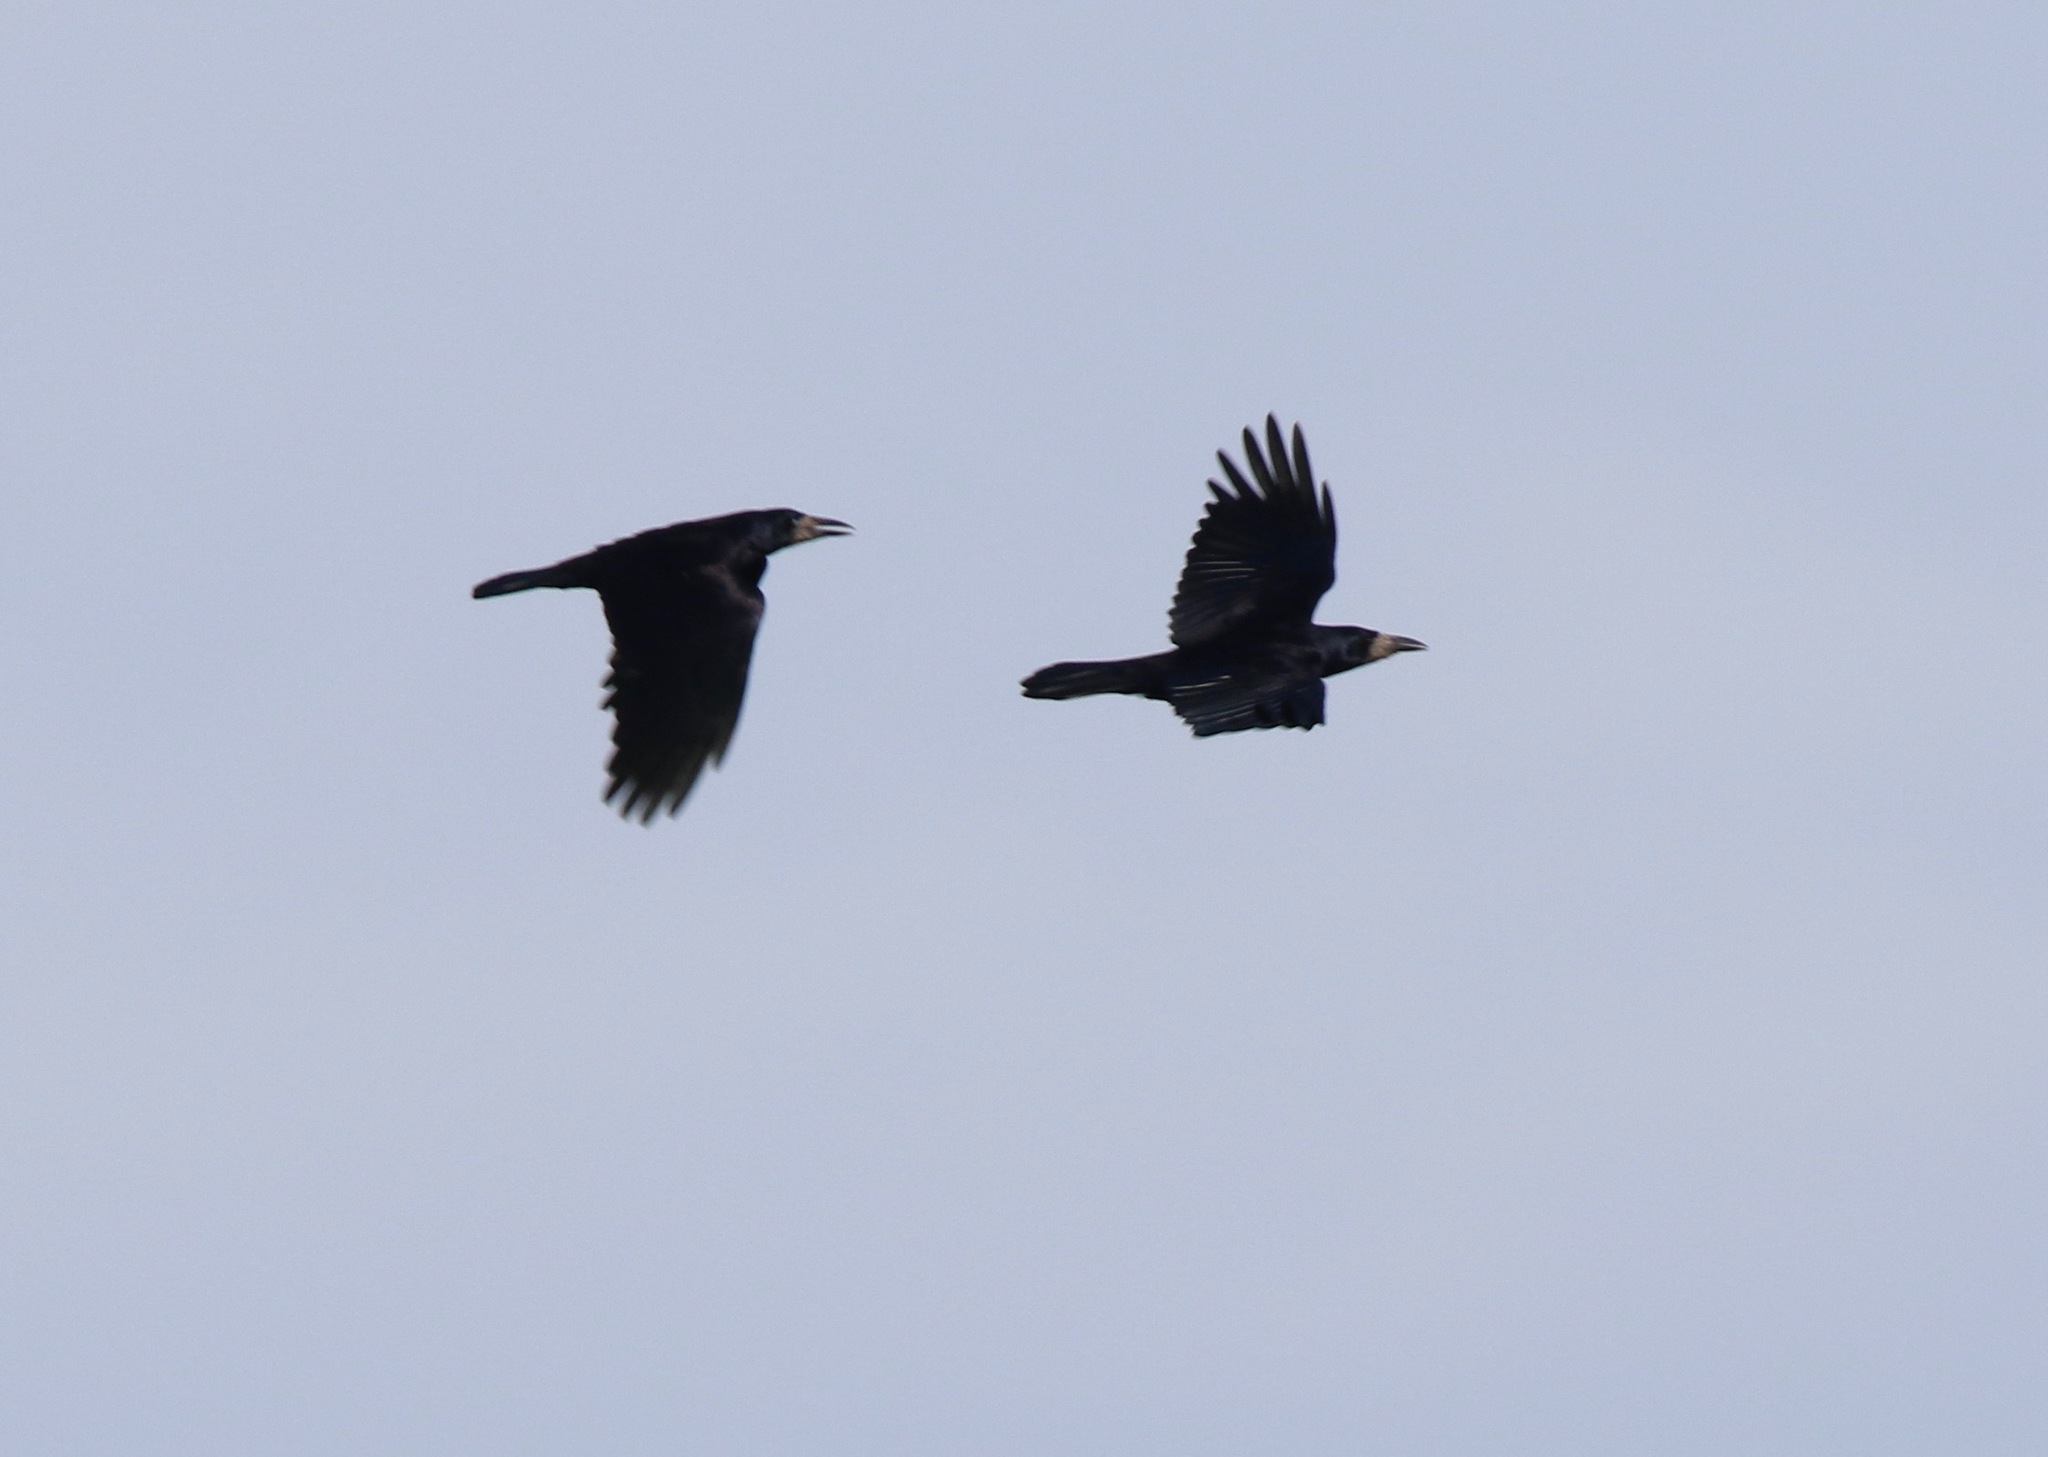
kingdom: Animalia
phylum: Chordata
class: Aves
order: Passeriformes
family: Corvidae
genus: Corvus
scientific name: Corvus frugilegus
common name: Rook
